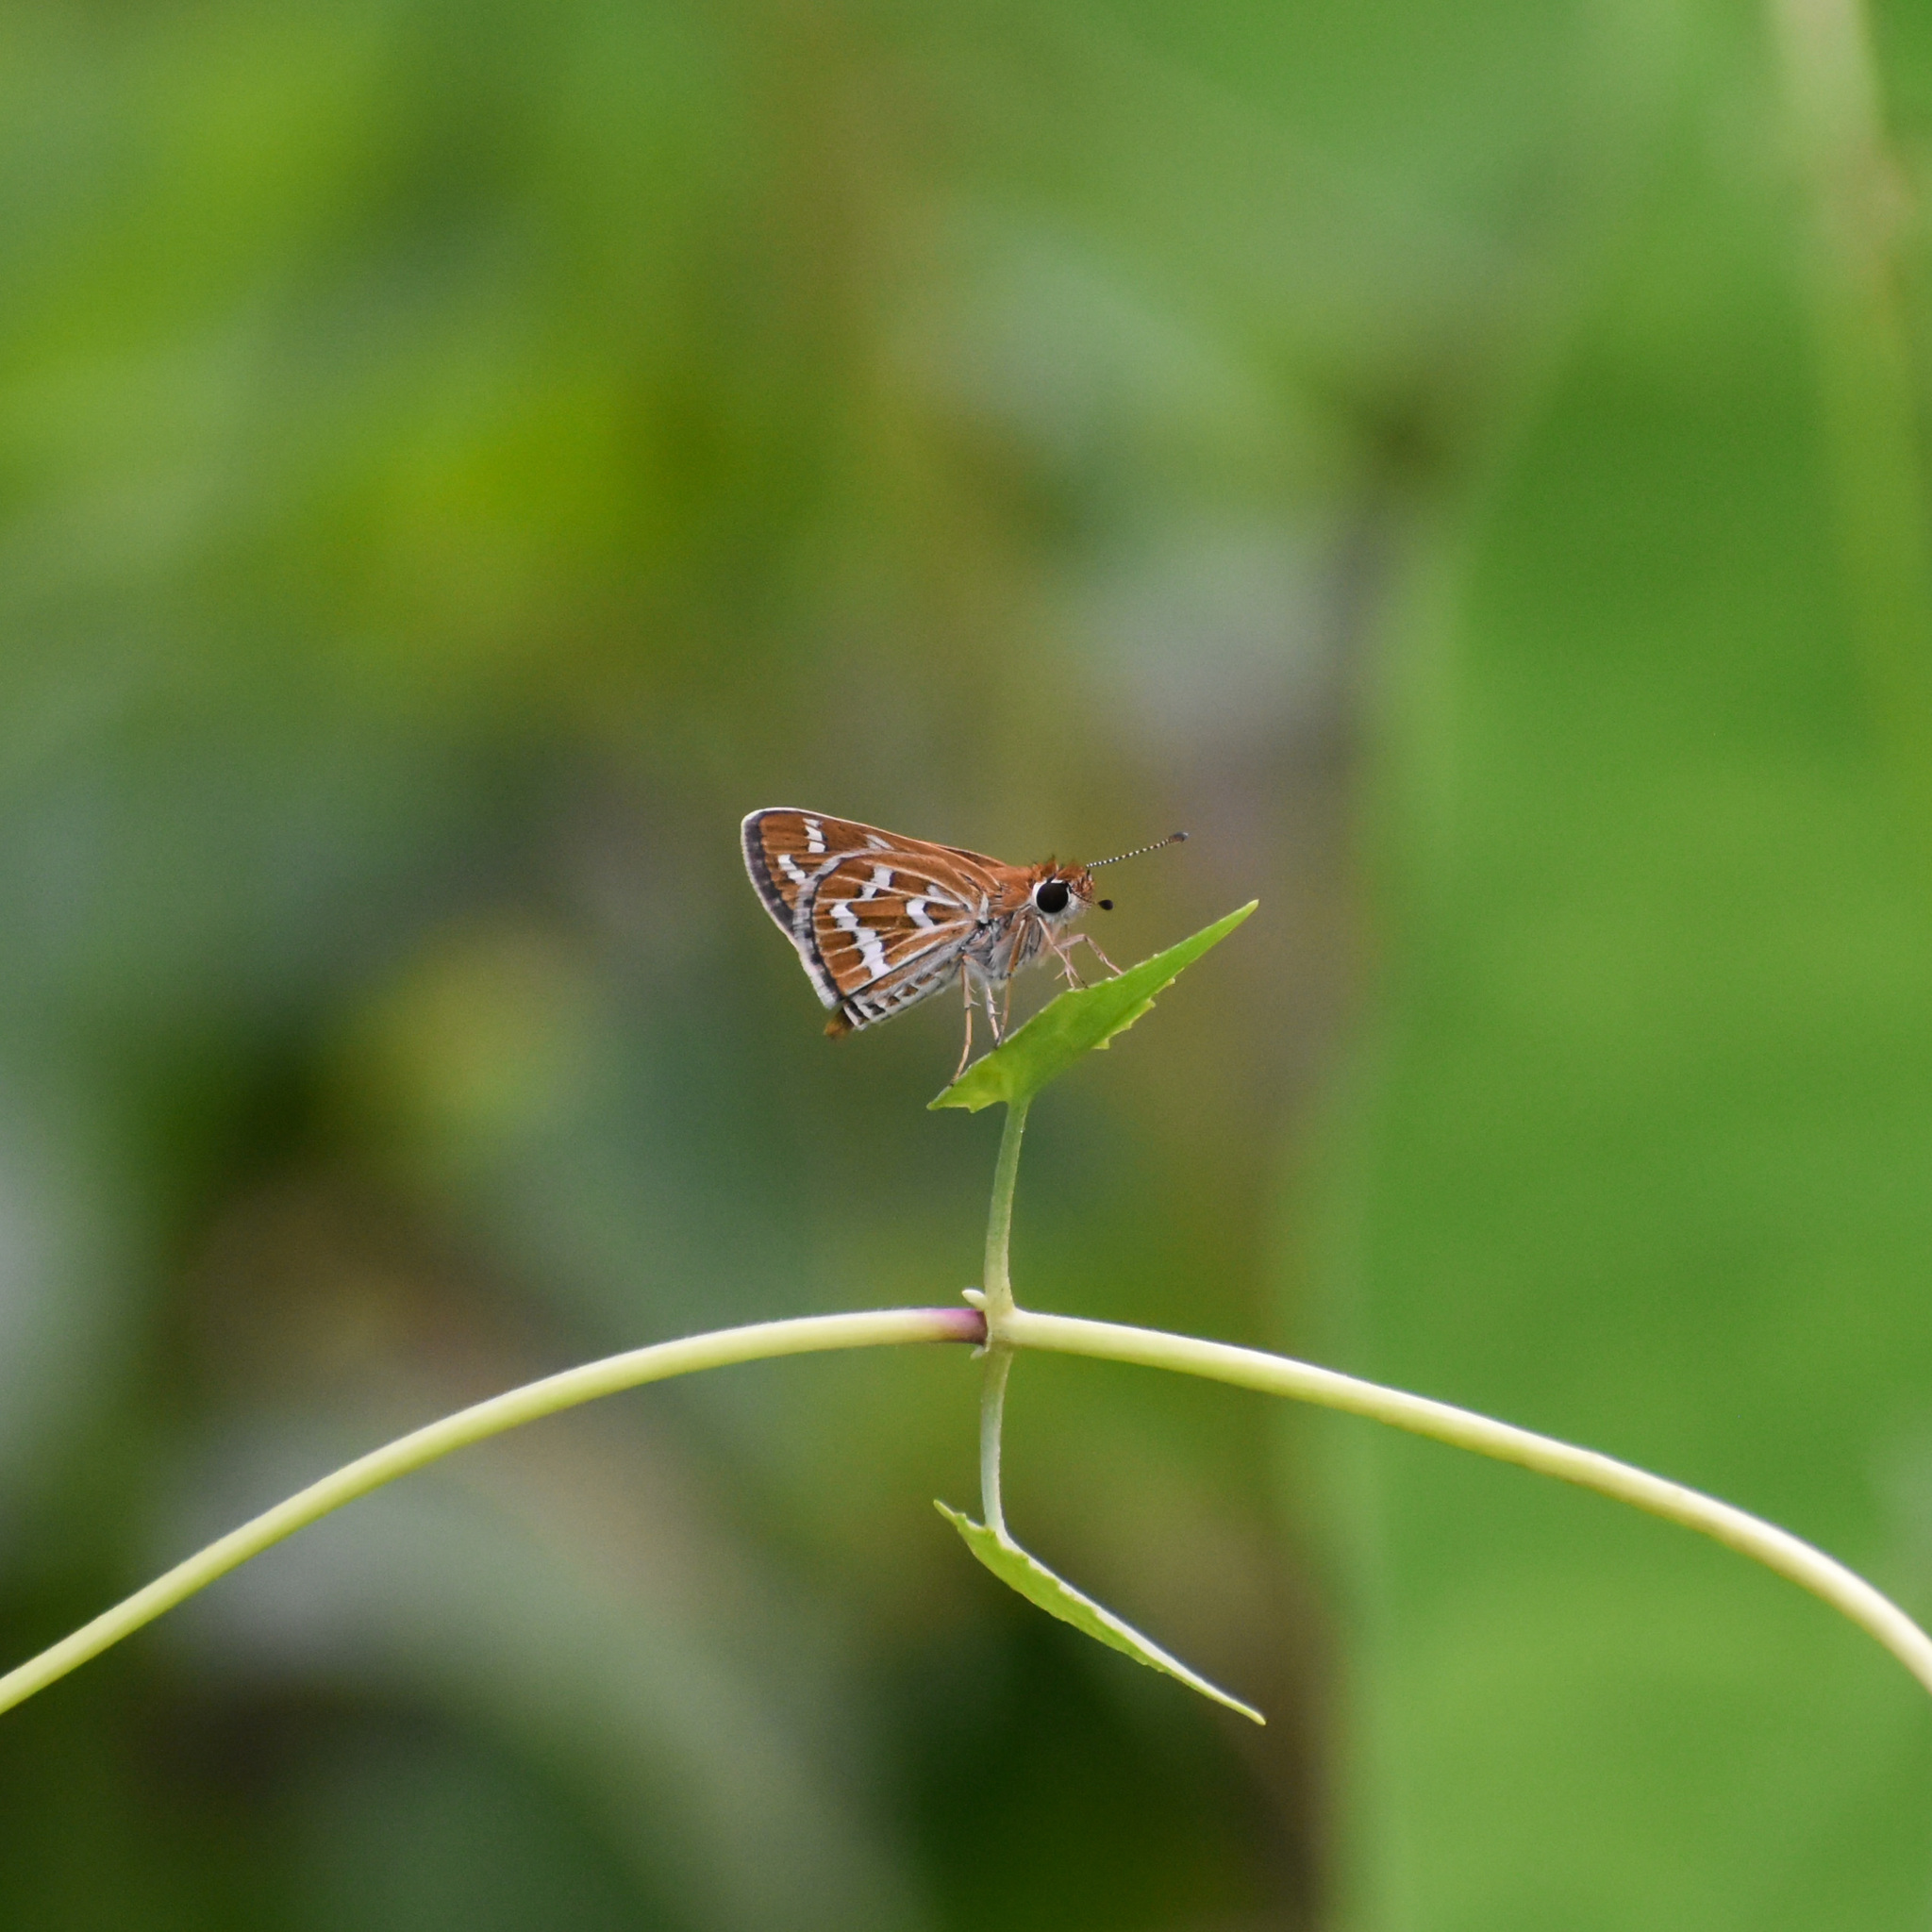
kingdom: Animalia
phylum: Arthropoda
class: Insecta
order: Lepidoptera
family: Hesperiidae
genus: Taractrocera
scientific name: Taractrocera maevius
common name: Common grass-dart
